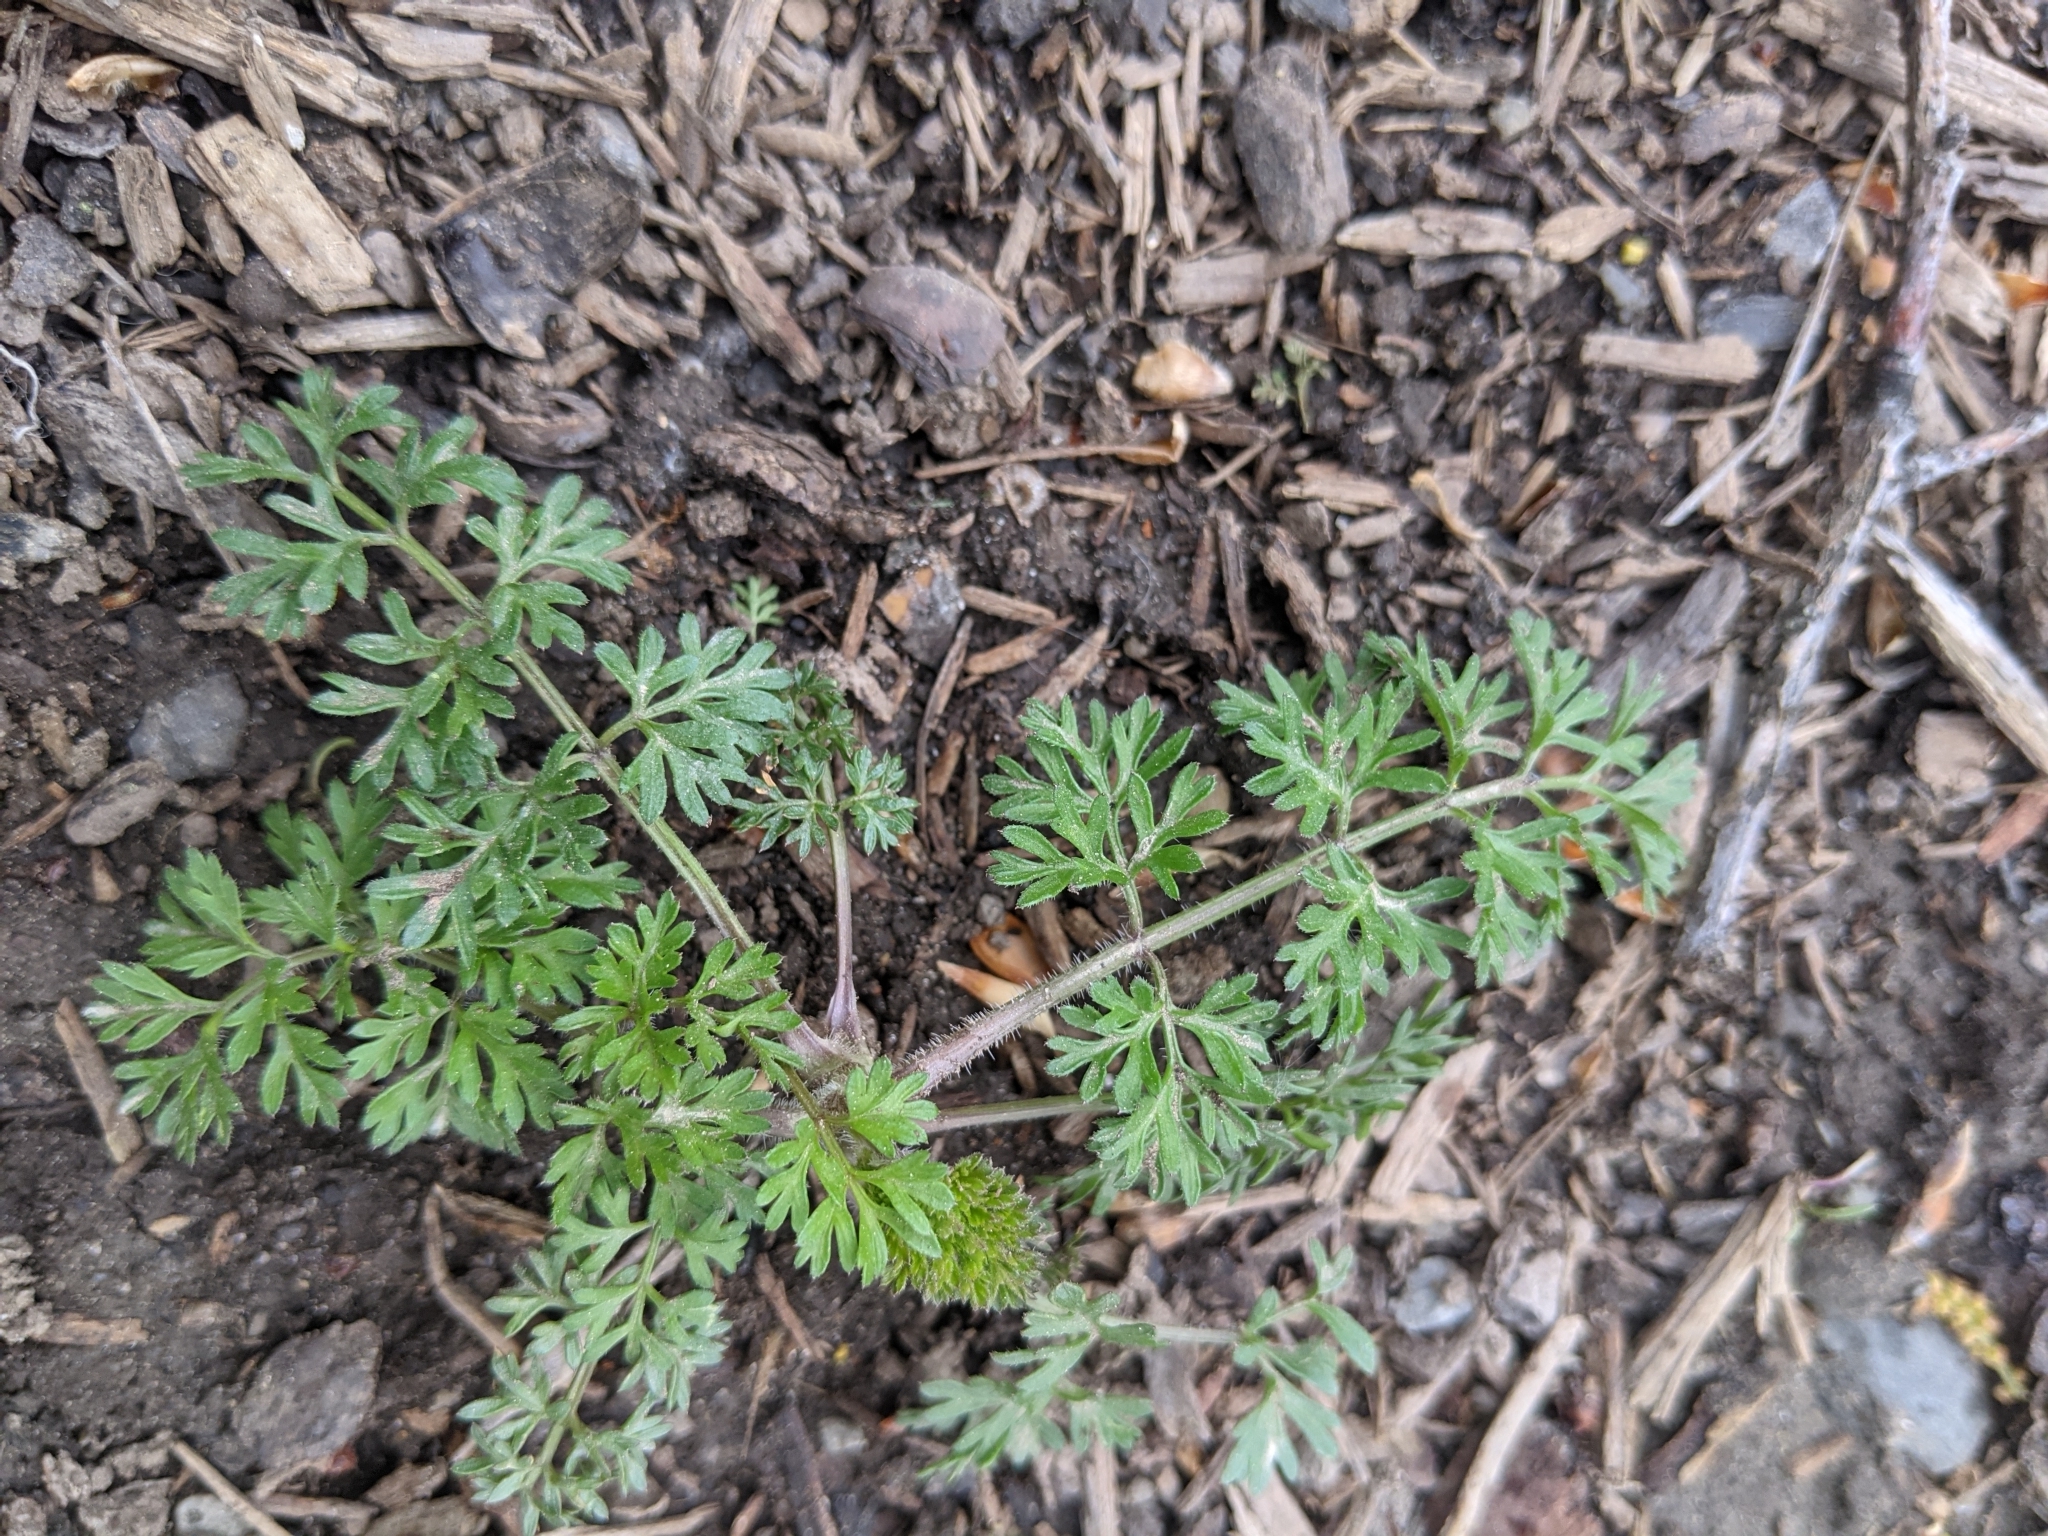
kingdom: Plantae
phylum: Tracheophyta
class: Magnoliopsida
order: Apiales
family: Apiaceae
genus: Daucus
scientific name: Daucus carota
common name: Wild carrot
